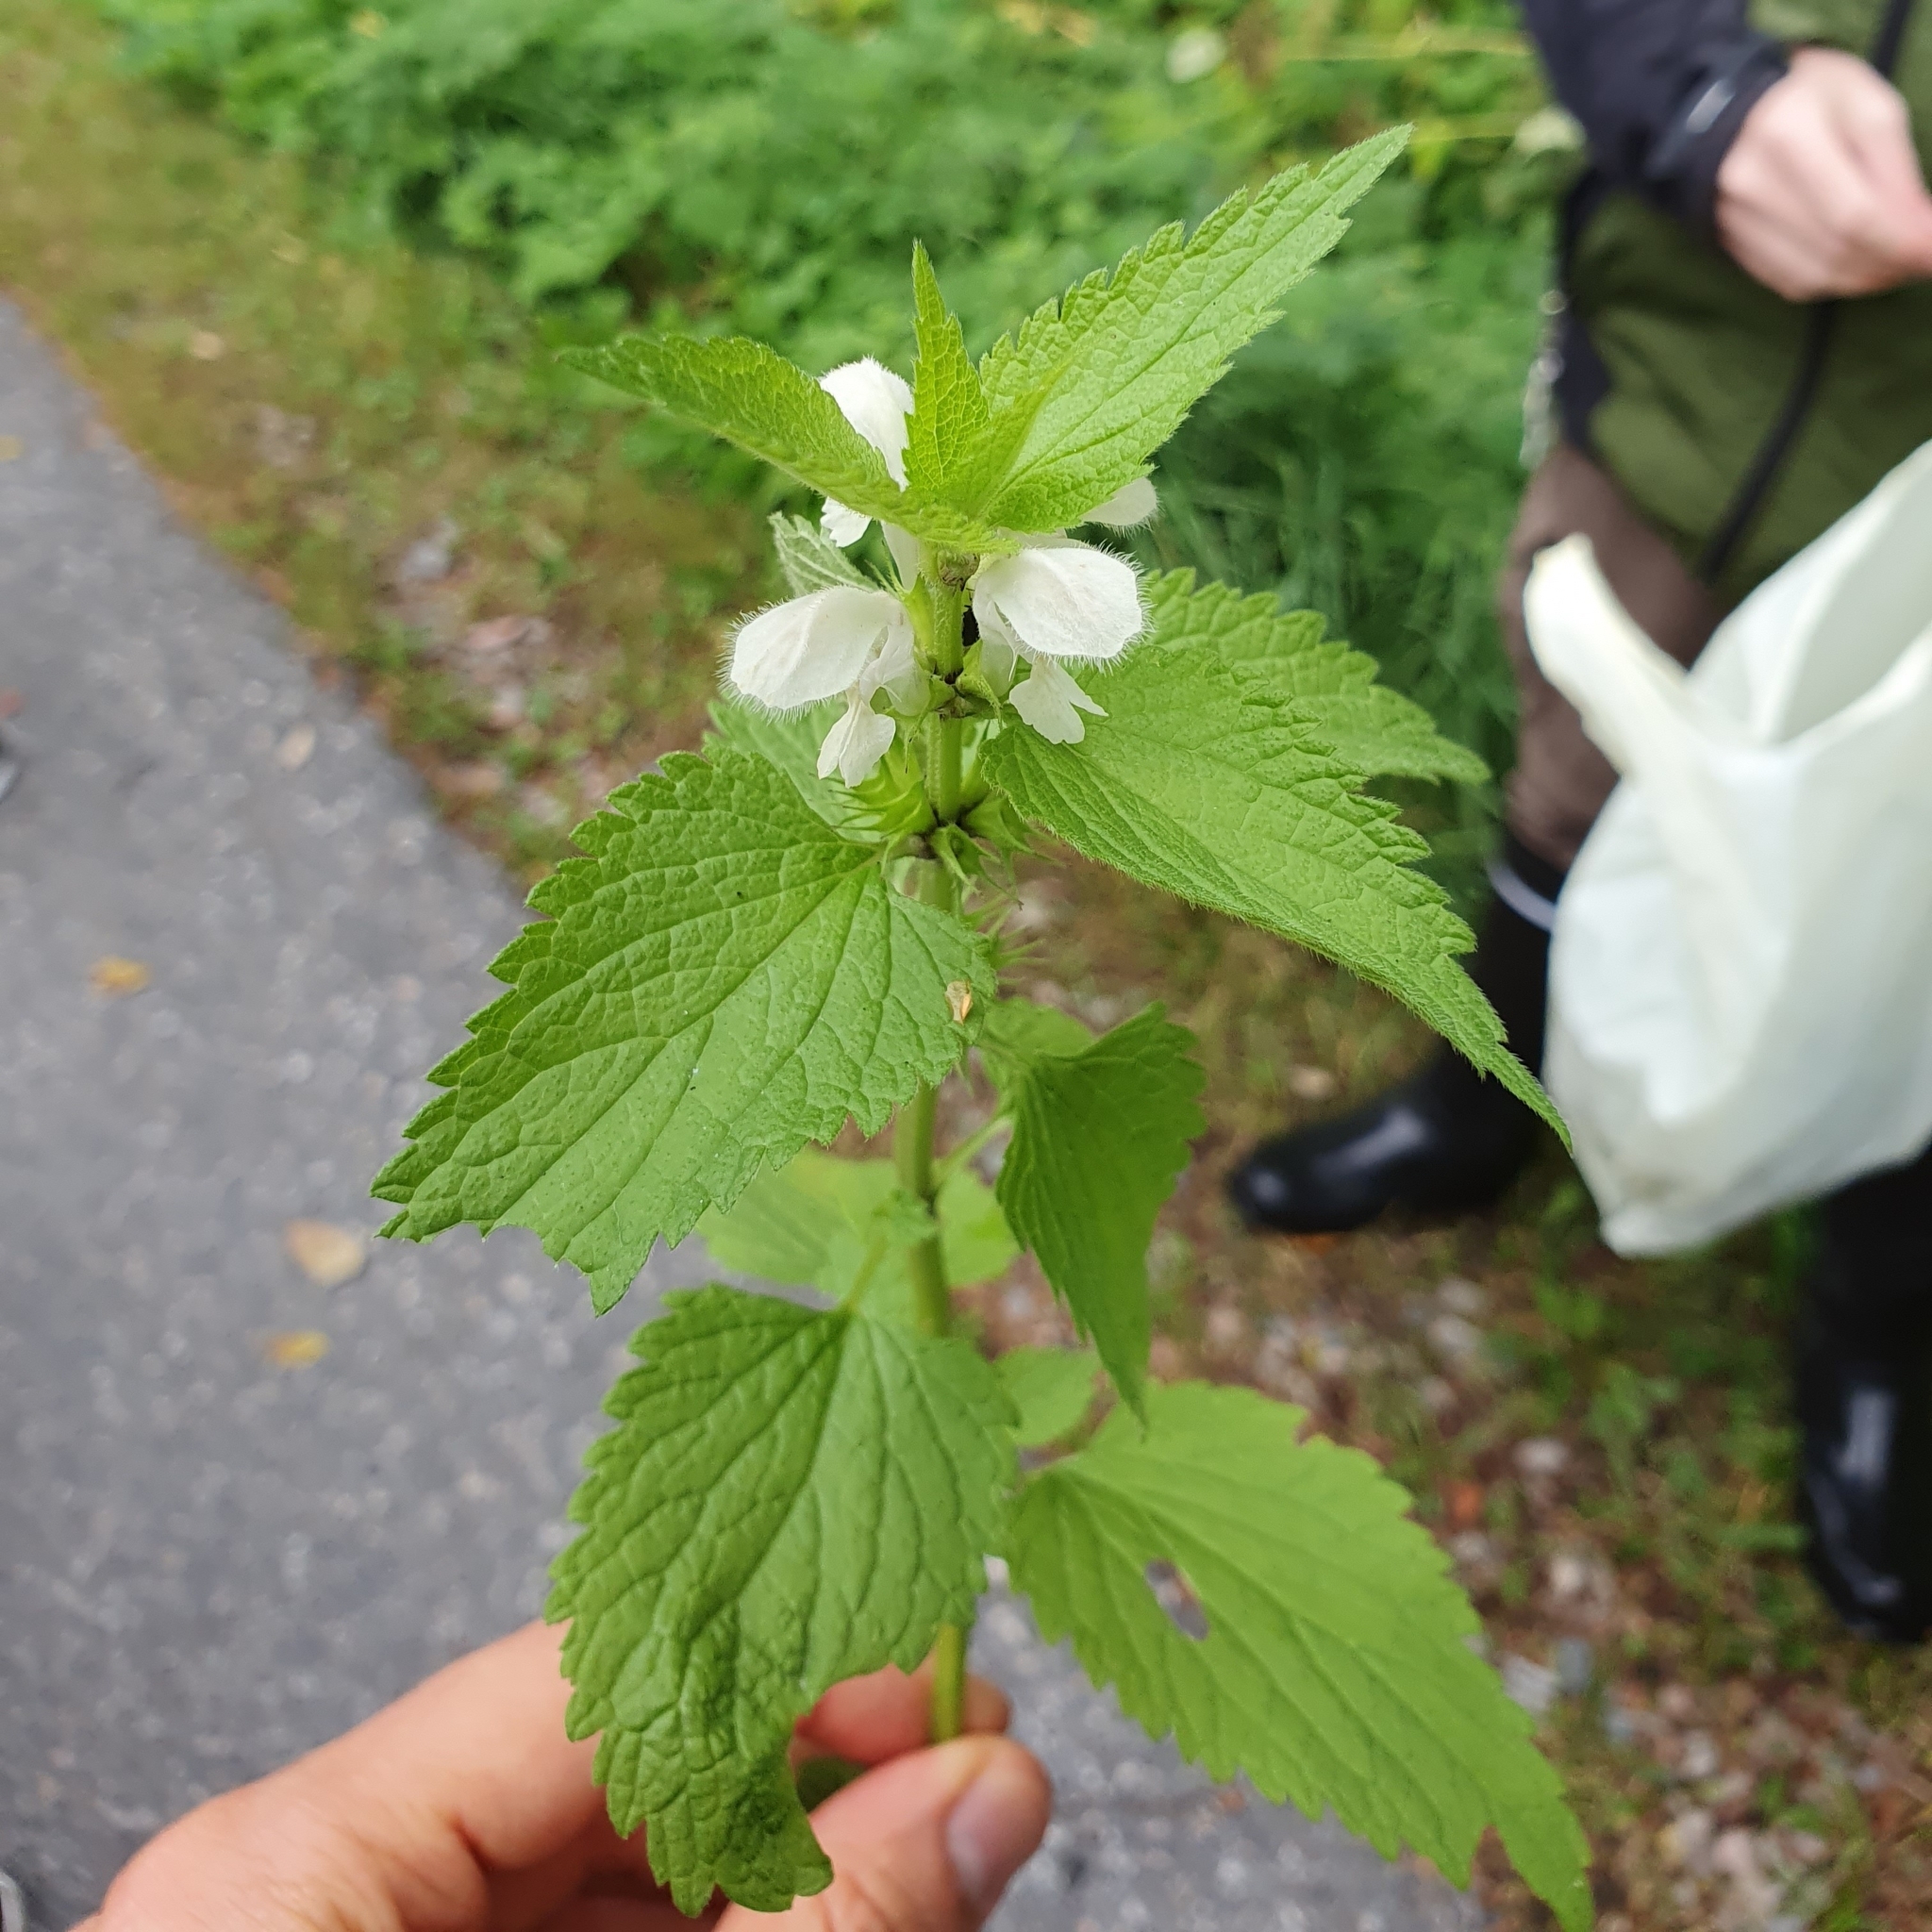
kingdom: Plantae
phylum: Tracheophyta
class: Magnoliopsida
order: Lamiales
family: Lamiaceae
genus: Lamium
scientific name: Lamium album
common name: White dead-nettle
